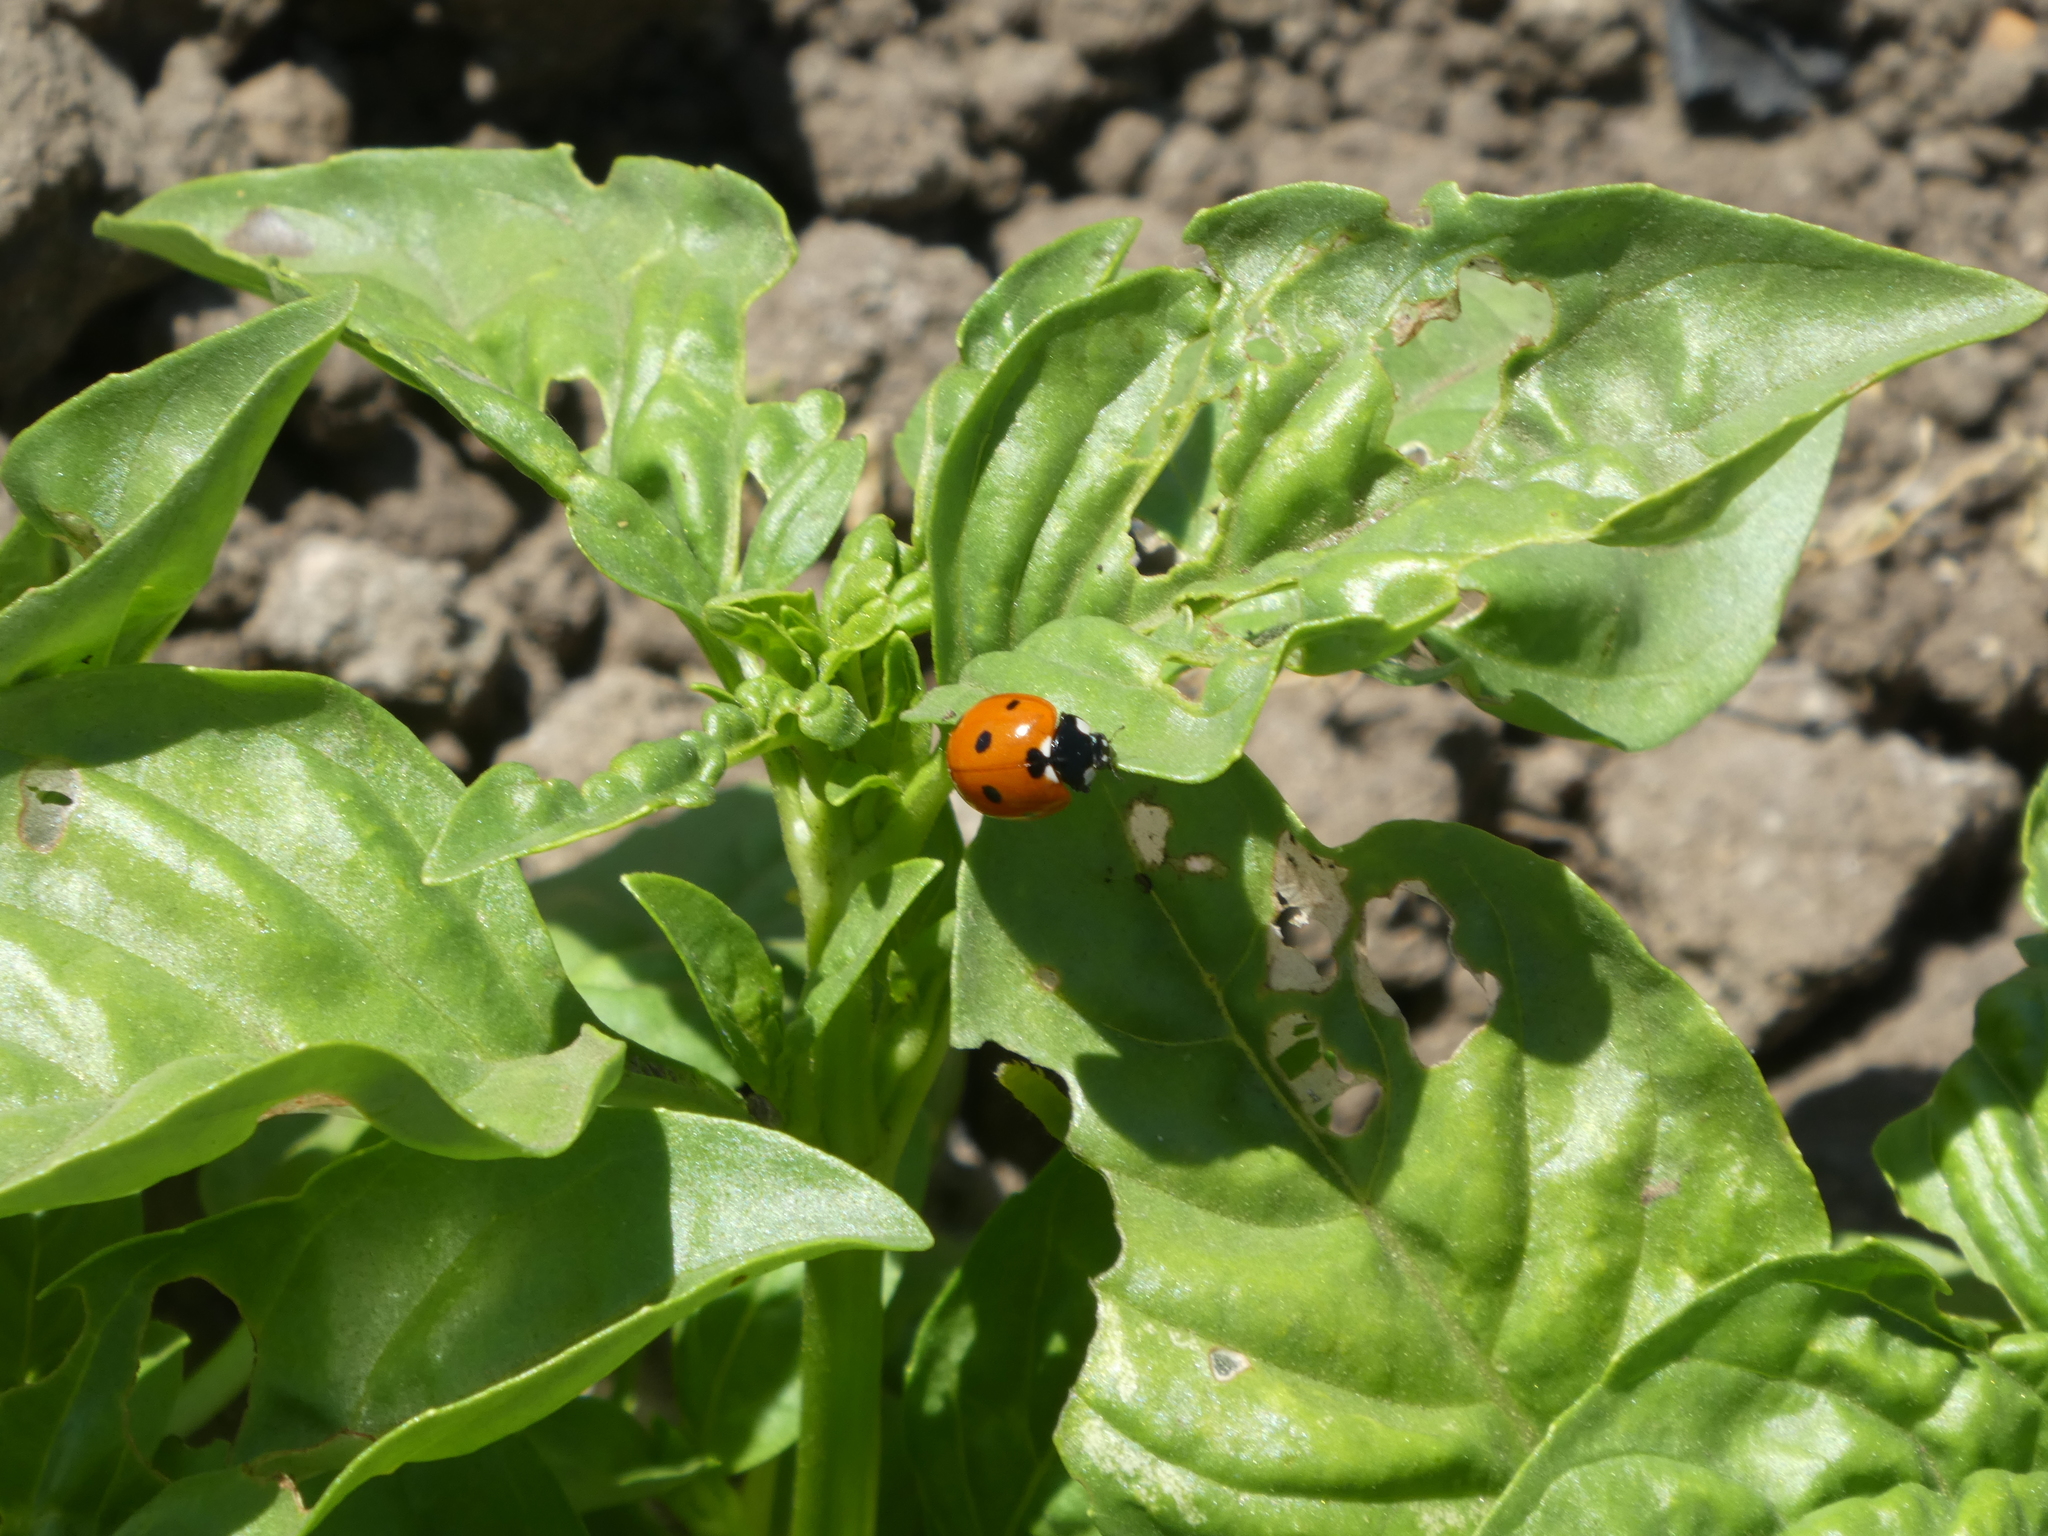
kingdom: Animalia
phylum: Arthropoda
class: Insecta
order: Coleoptera
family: Coccinellidae
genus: Coccinella
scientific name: Coccinella septempunctata
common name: Sevenspotted lady beetle
